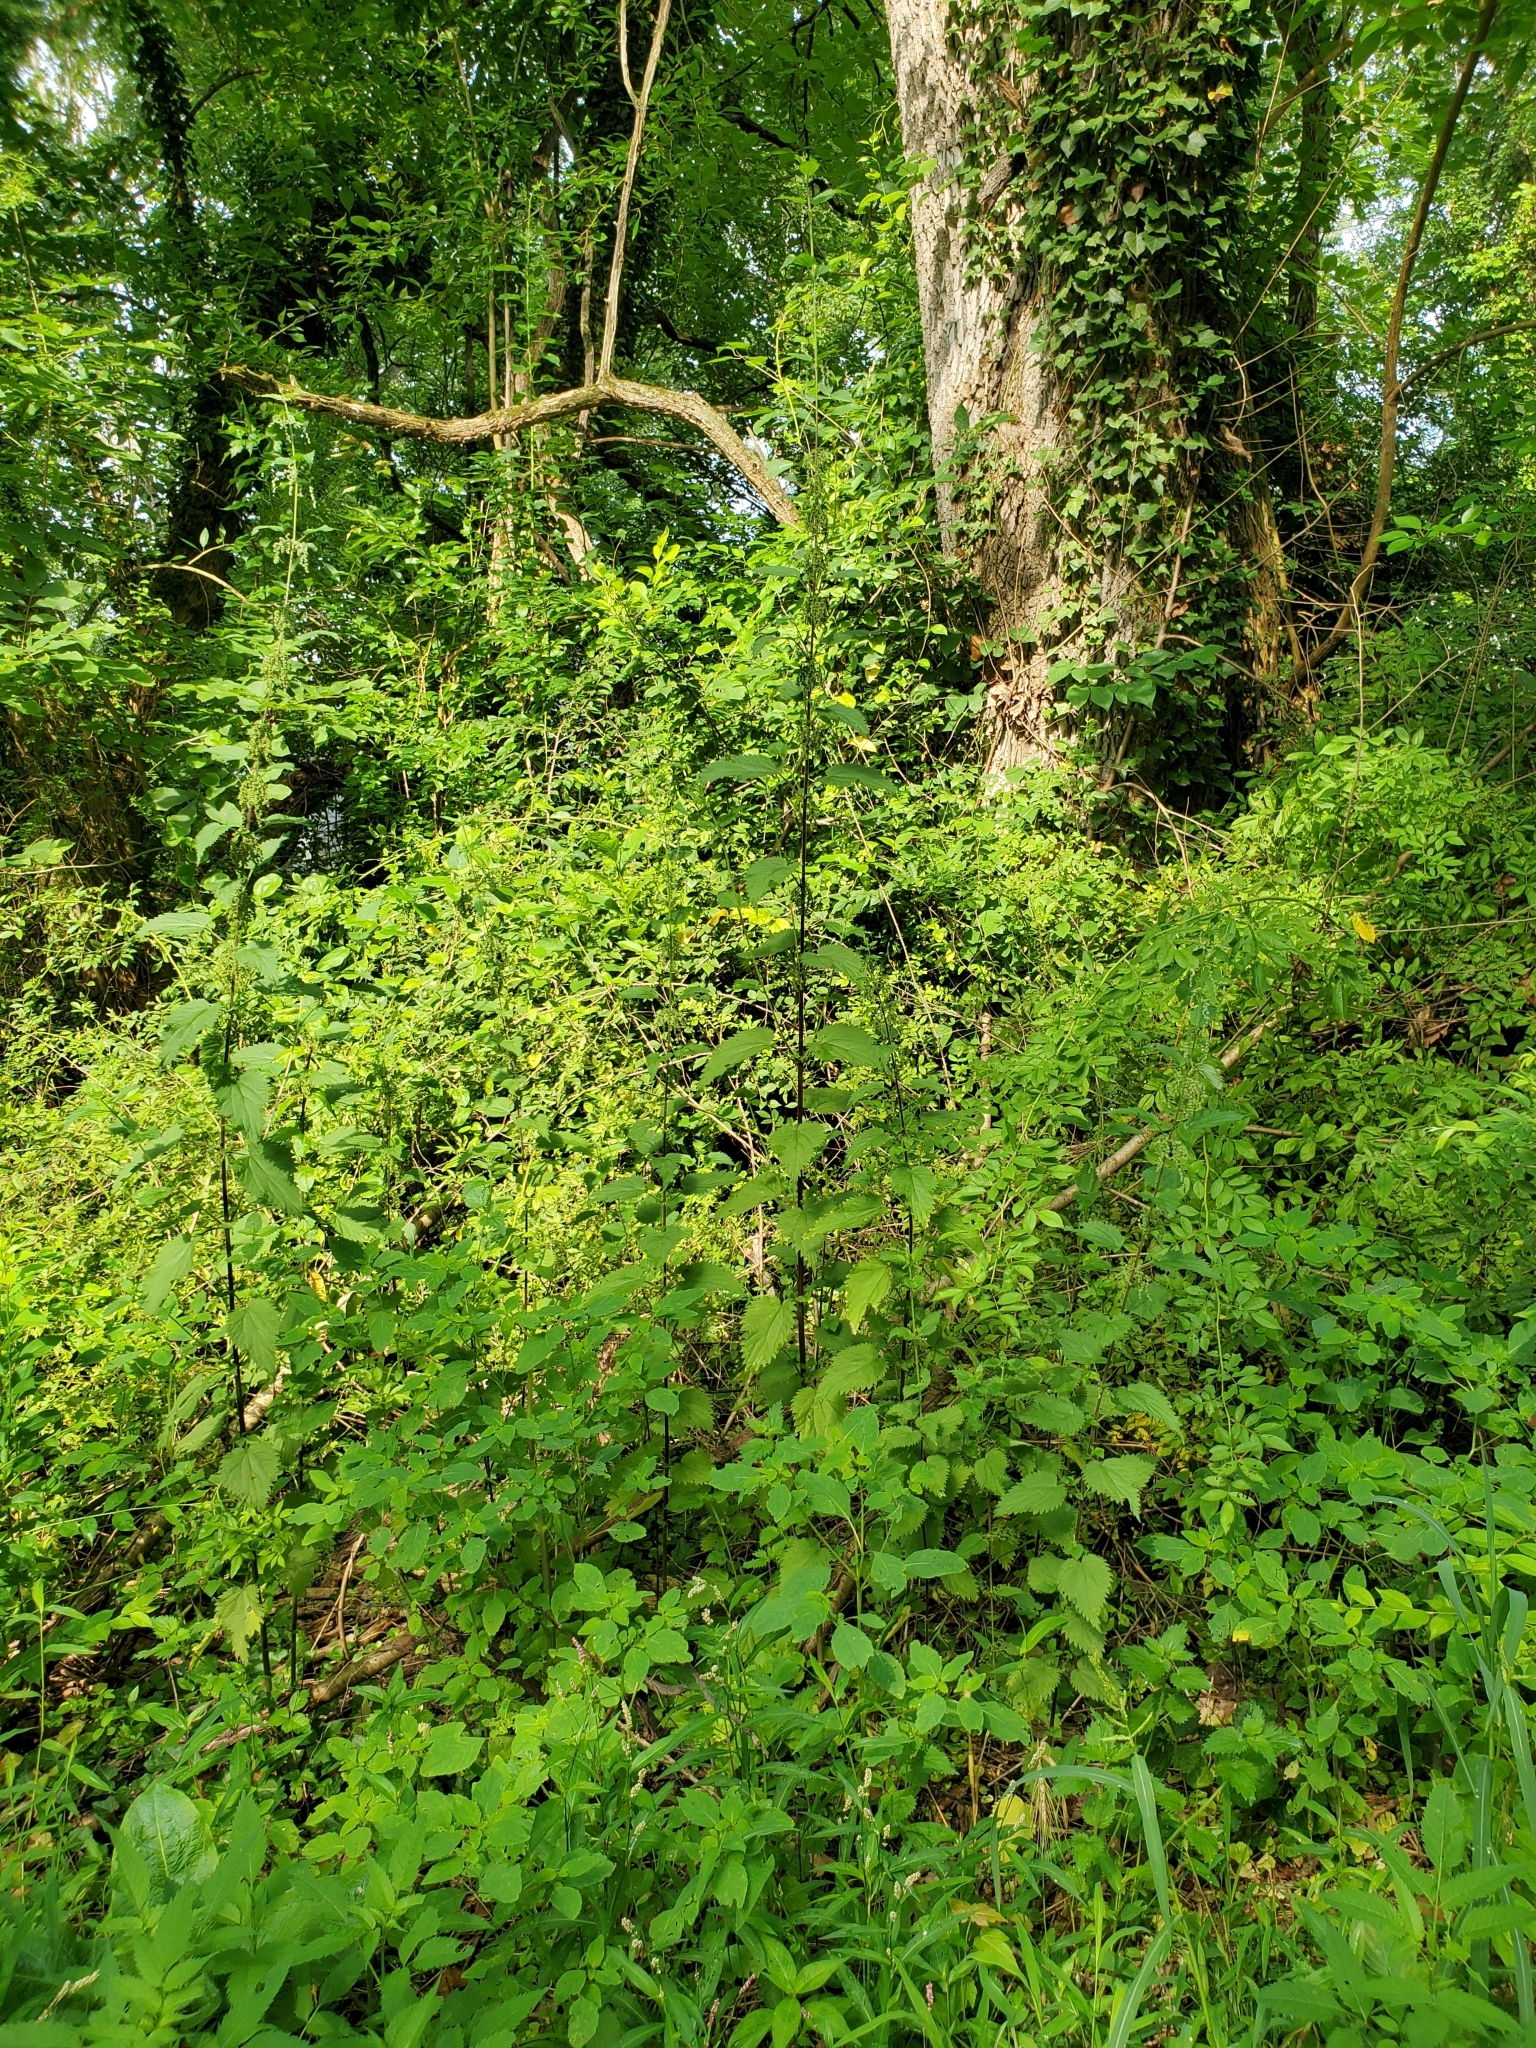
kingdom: Plantae
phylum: Tracheophyta
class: Magnoliopsida
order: Rosales
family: Urticaceae
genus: Urtica
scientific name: Urtica dioica
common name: Common nettle
